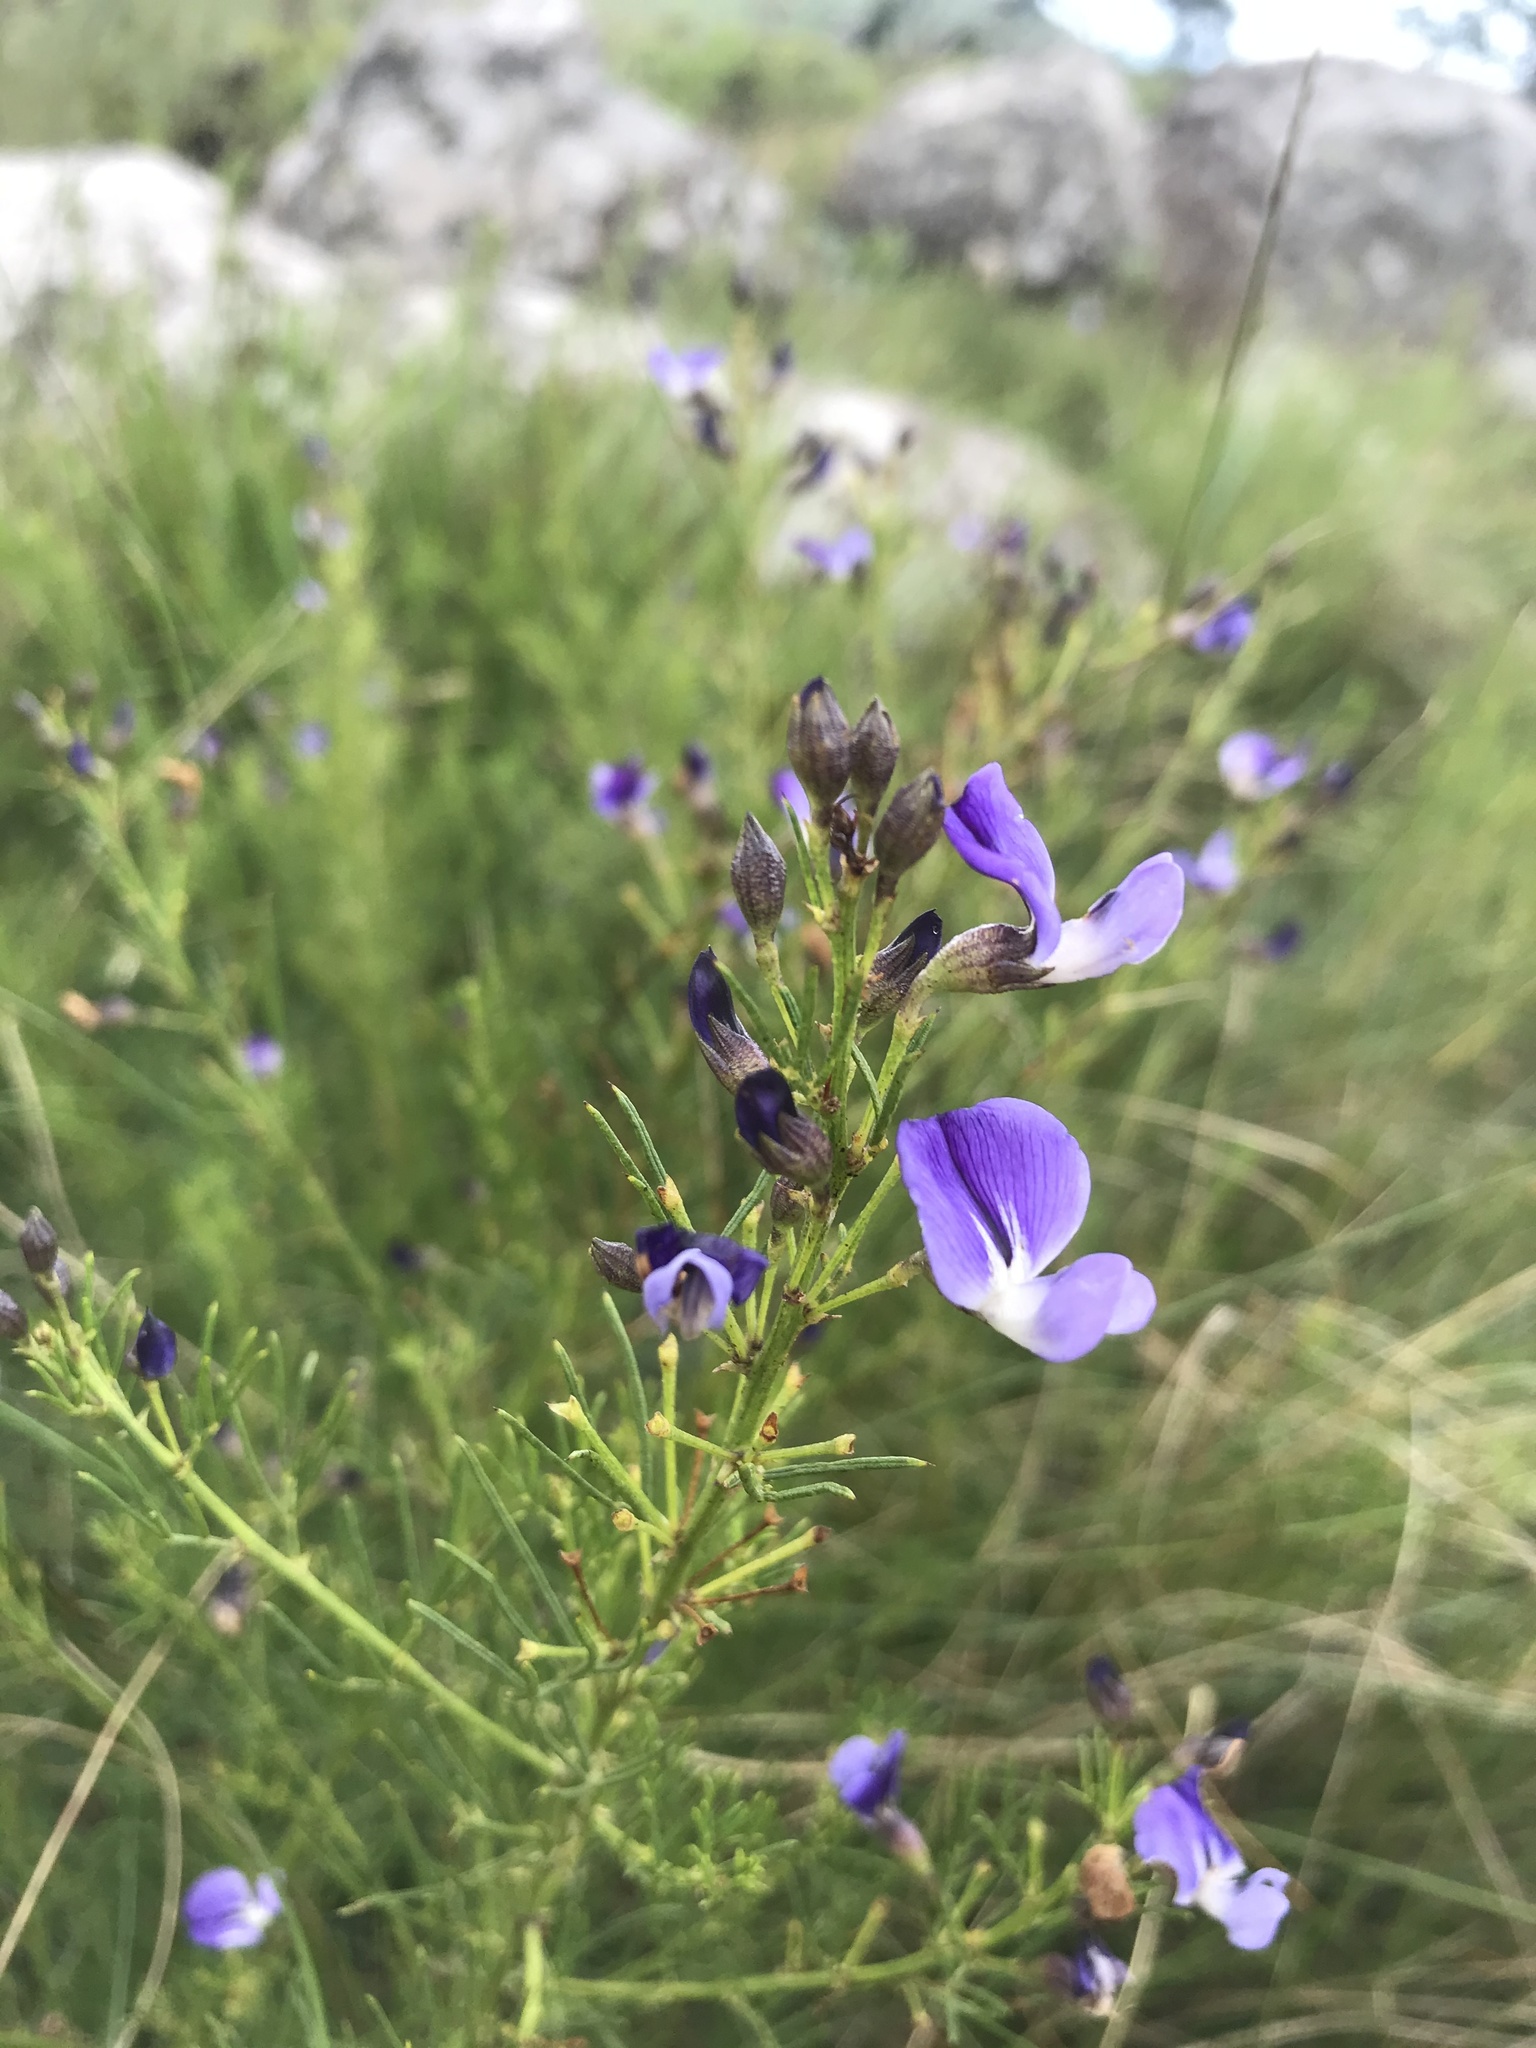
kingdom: Plantae
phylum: Tracheophyta
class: Magnoliopsida
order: Fabales
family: Fabaceae
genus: Psoralea
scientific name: Psoralea rhizotoma
